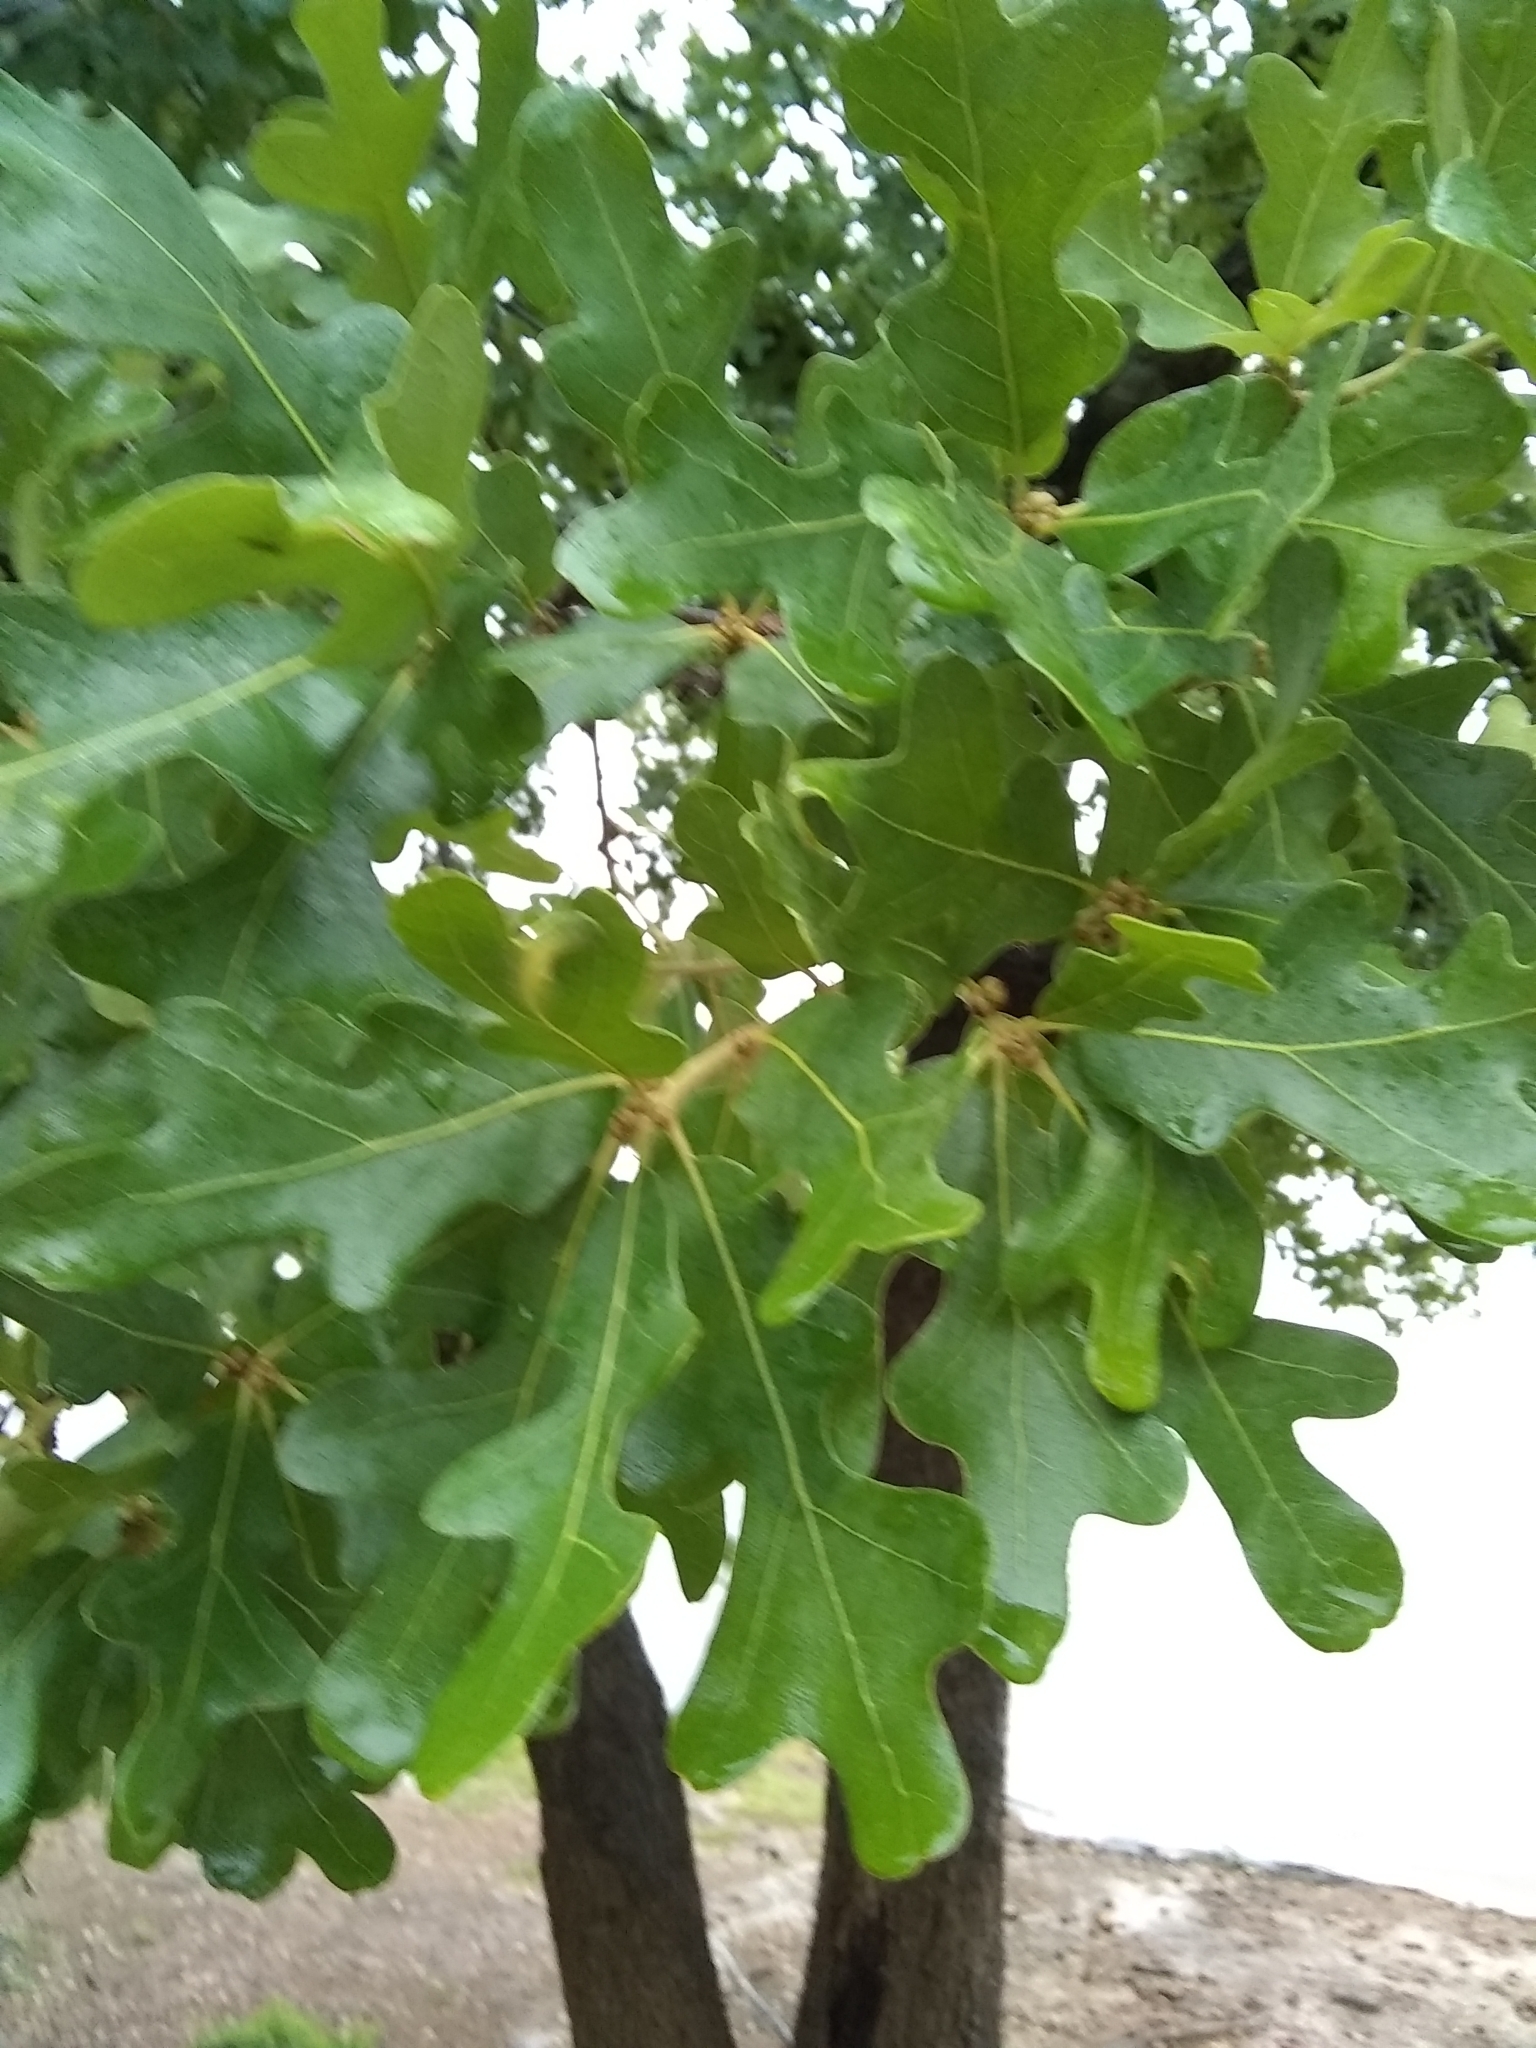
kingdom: Plantae
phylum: Tracheophyta
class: Magnoliopsida
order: Fagales
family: Fagaceae
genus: Quercus
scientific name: Quercus stellata
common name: Post oak
